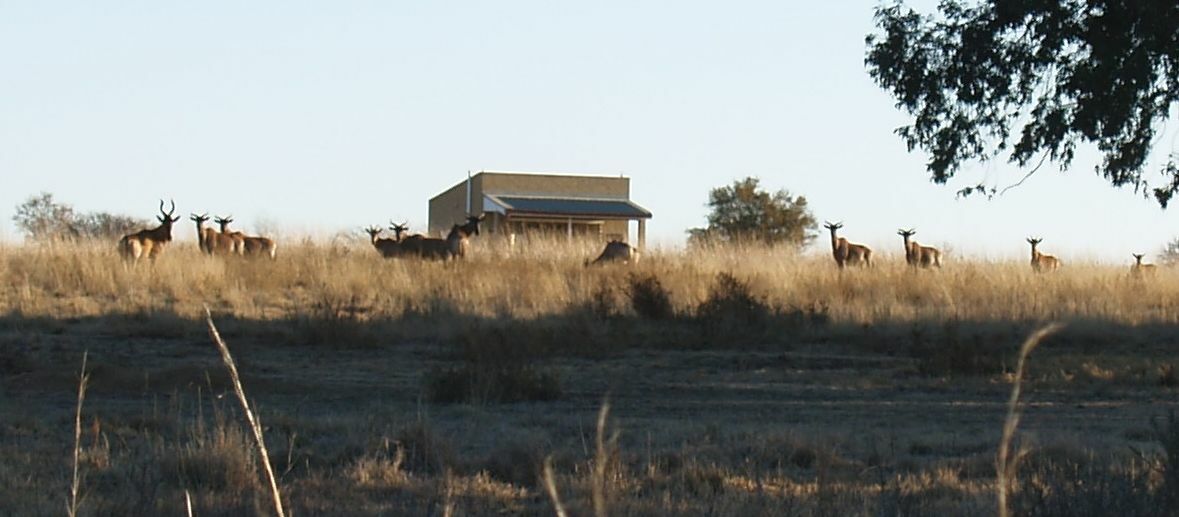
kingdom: Animalia
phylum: Chordata
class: Mammalia
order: Artiodactyla
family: Bovidae
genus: Alcelaphus
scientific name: Alcelaphus caama
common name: Red hartebeest
